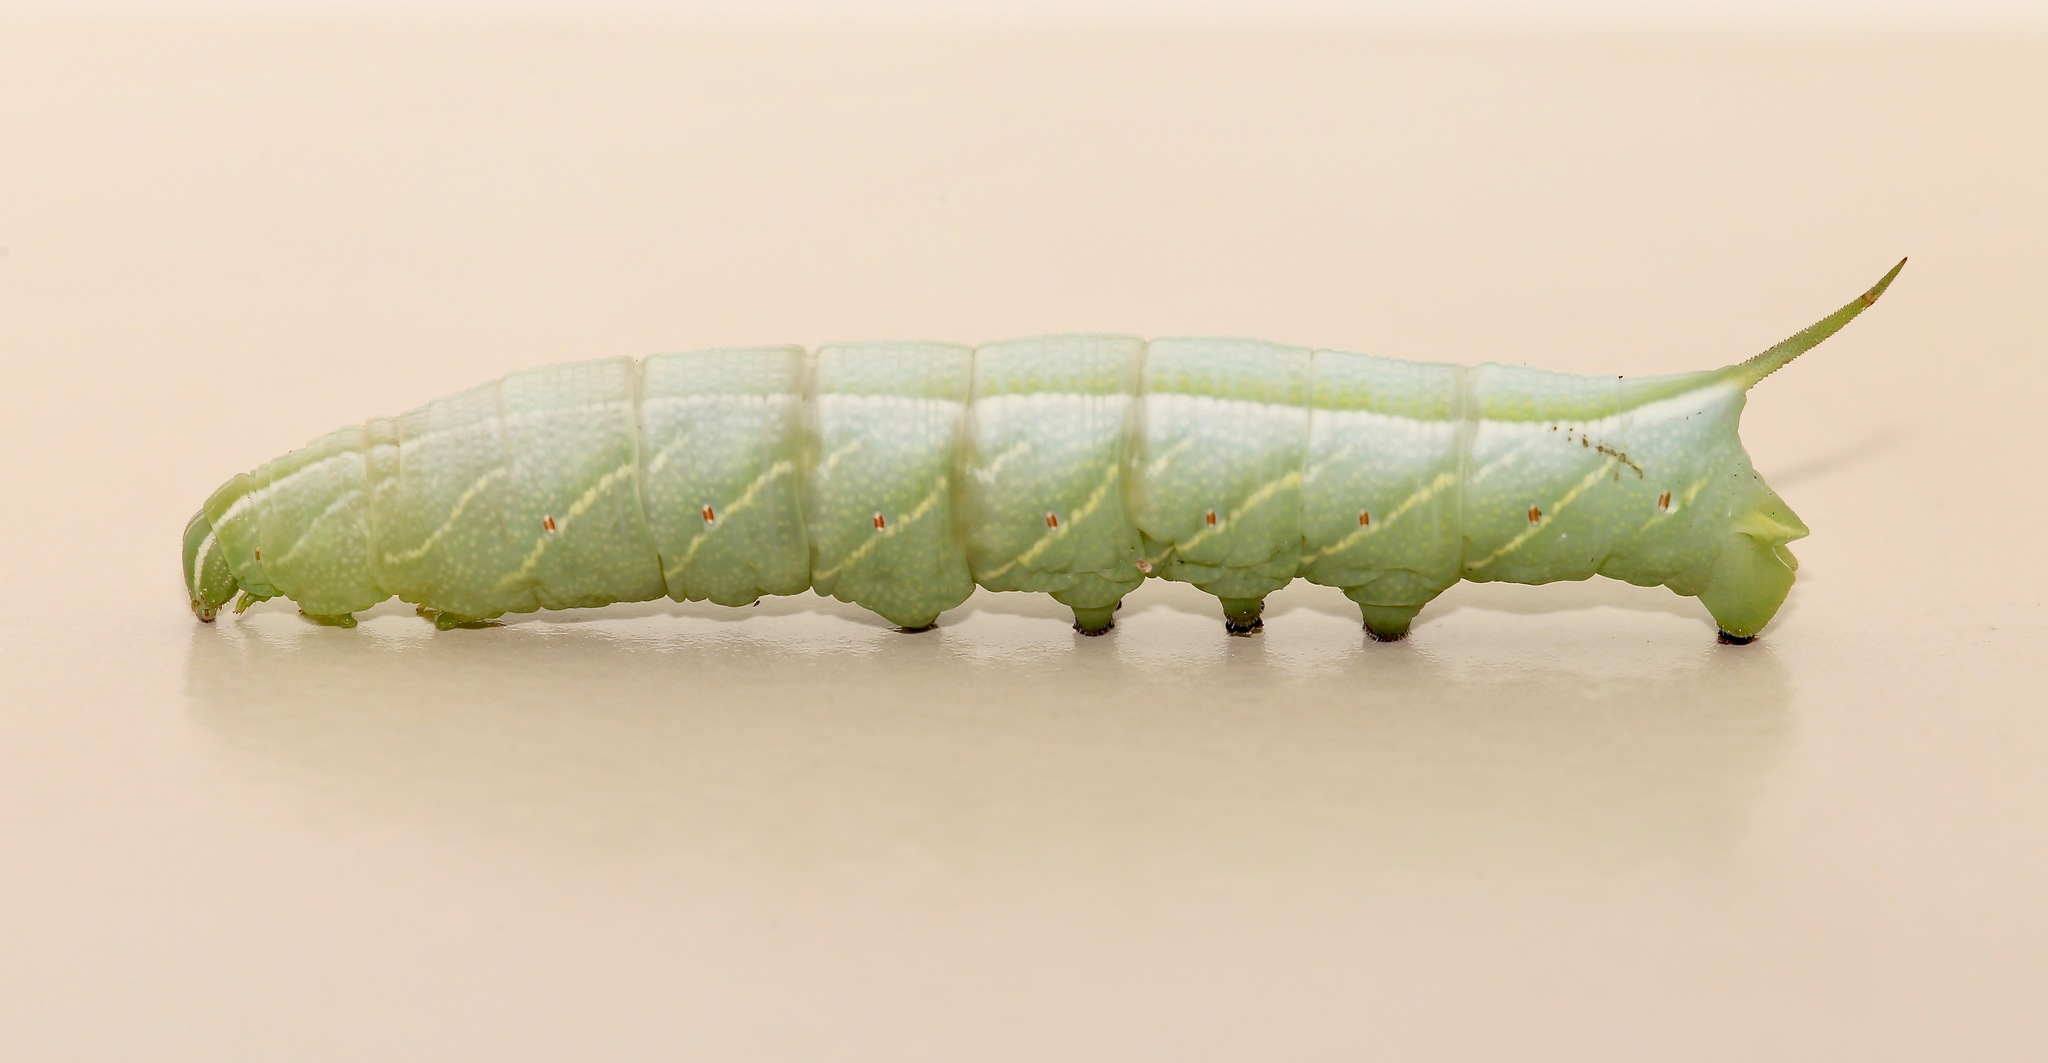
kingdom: Animalia
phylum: Arthropoda
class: Insecta
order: Lepidoptera
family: Sphingidae
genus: Enyo
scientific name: Enyo lugubris
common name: Mournful sphinx
